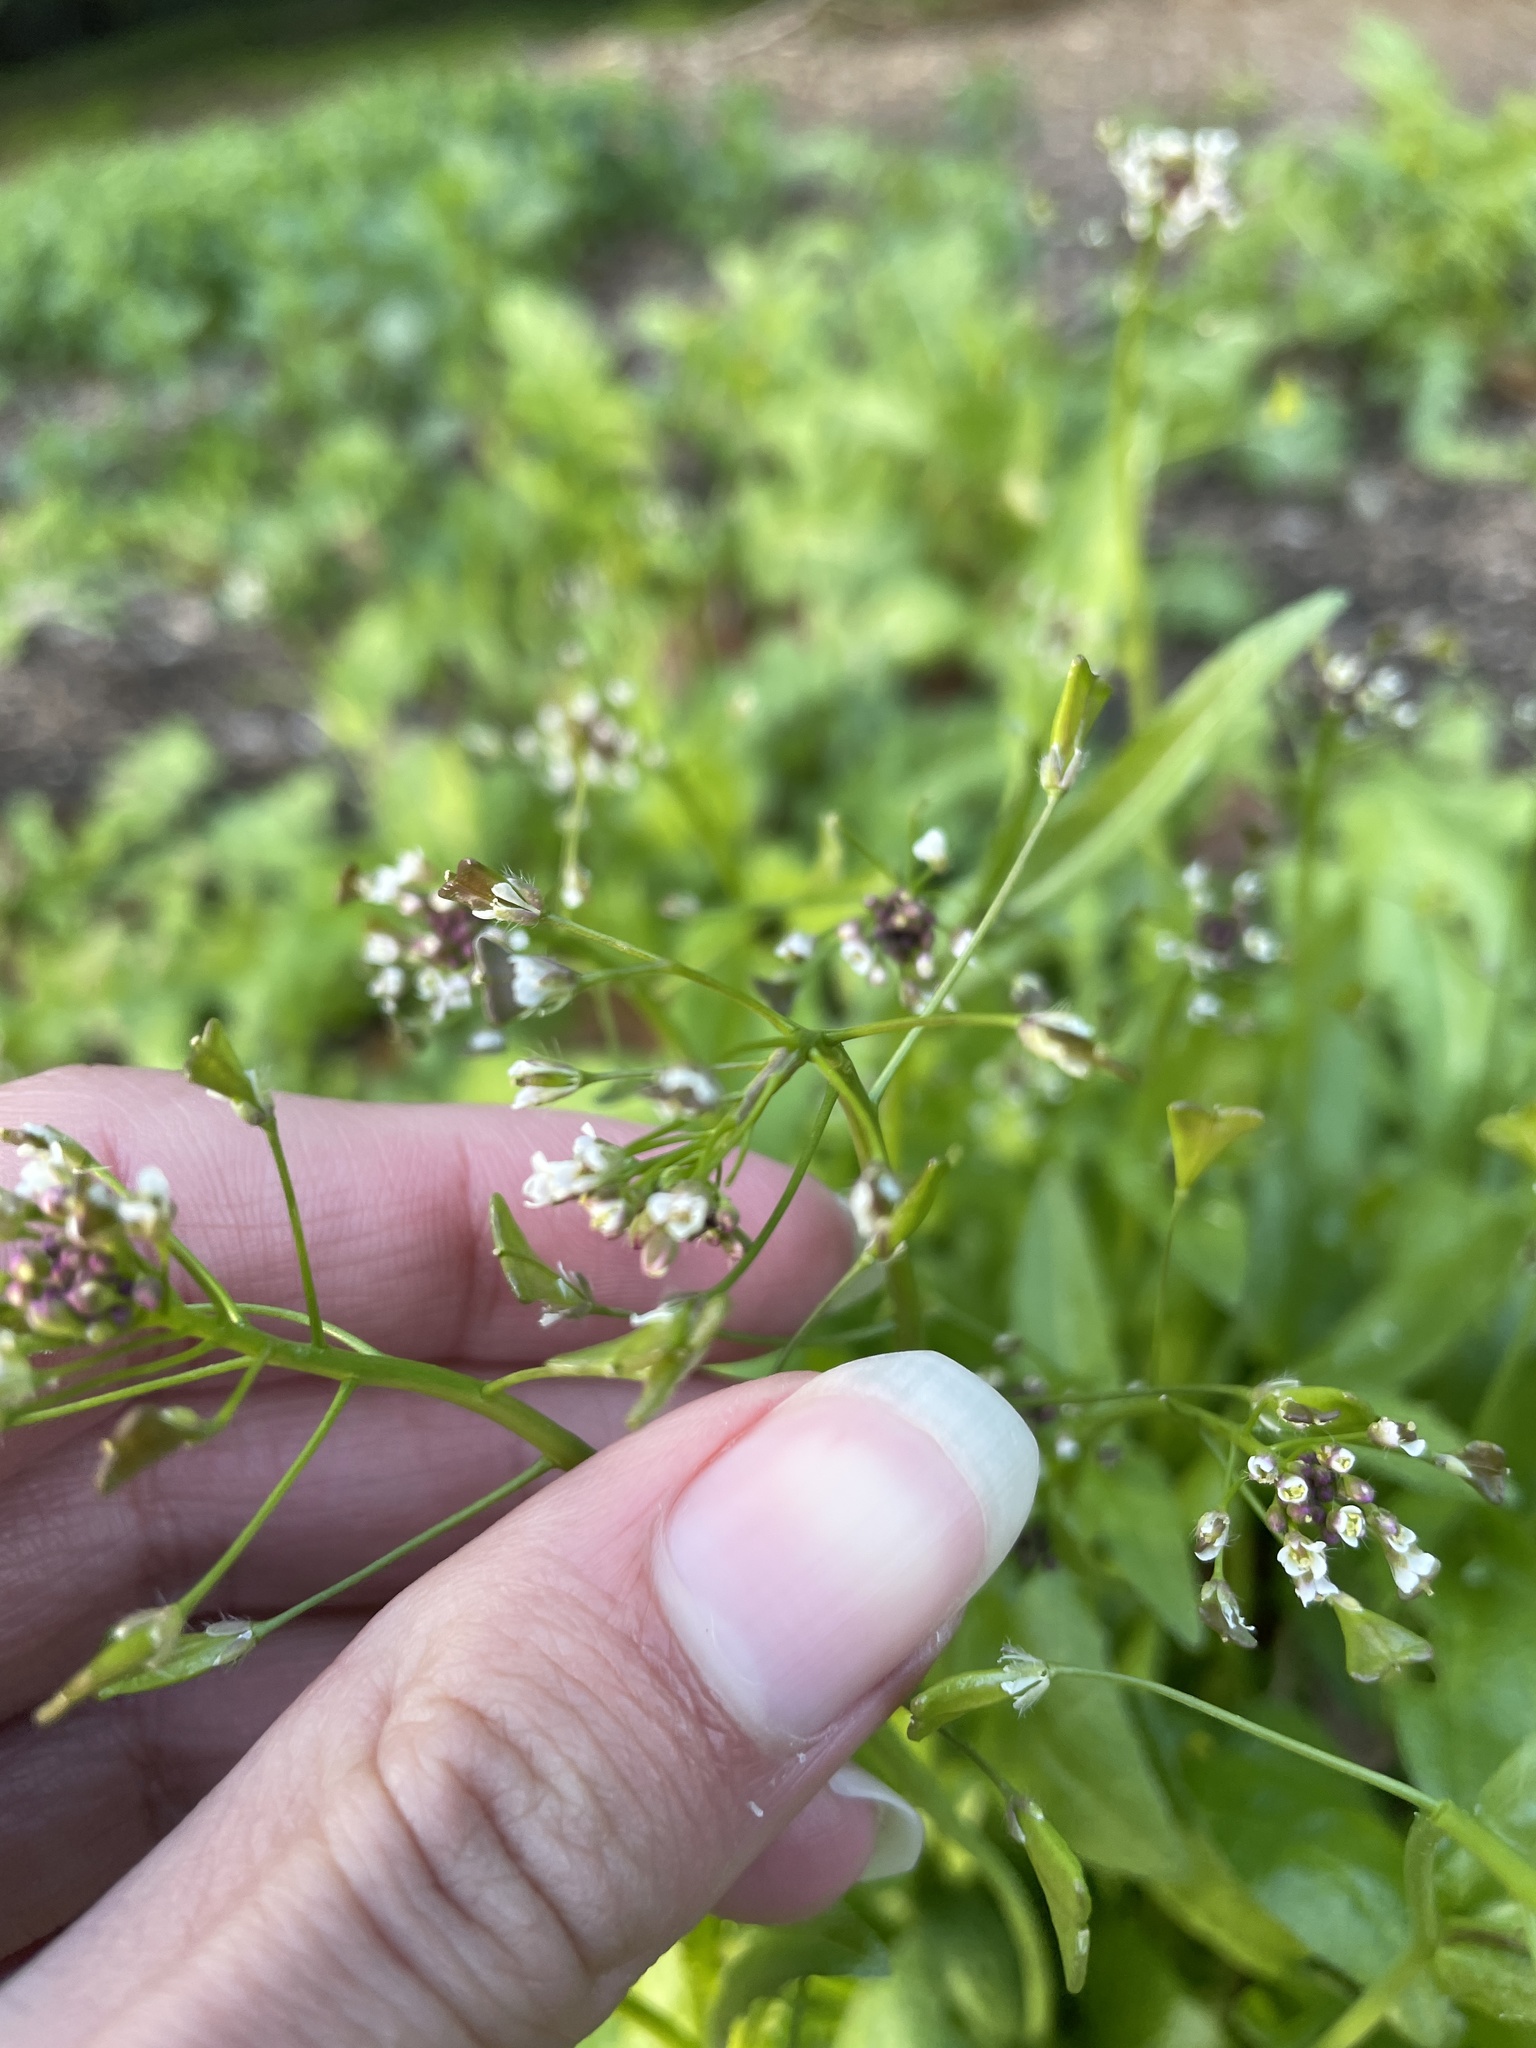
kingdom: Plantae
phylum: Tracheophyta
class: Magnoliopsida
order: Brassicales
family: Brassicaceae
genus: Capsella
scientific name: Capsella bursa-pastoris
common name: Shepherd's purse
